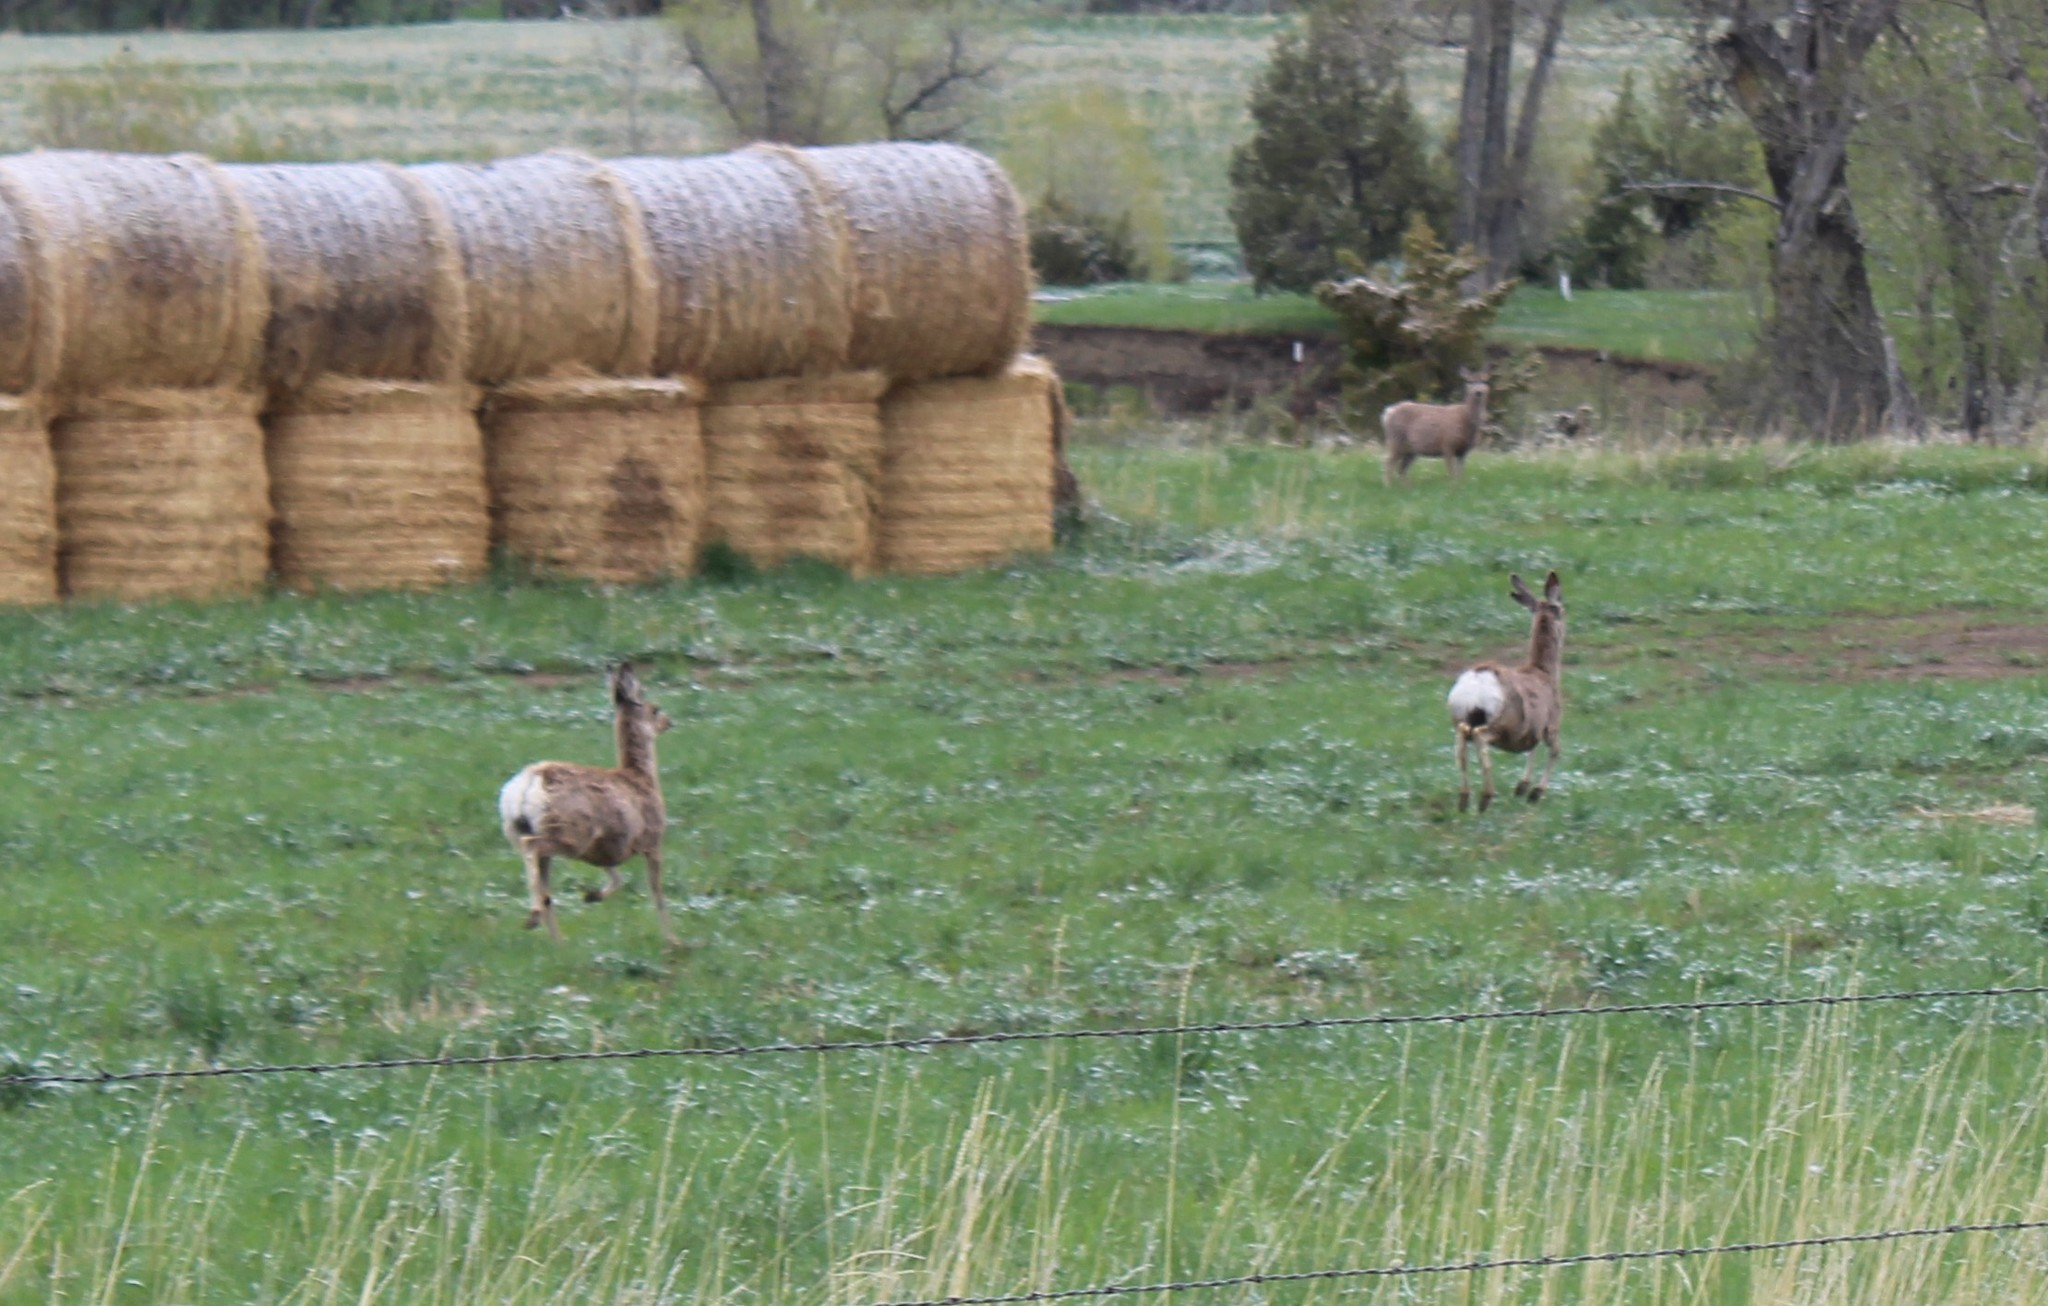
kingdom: Animalia
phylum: Chordata
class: Mammalia
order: Artiodactyla
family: Cervidae
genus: Odocoileus
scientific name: Odocoileus hemionus
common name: Mule deer
